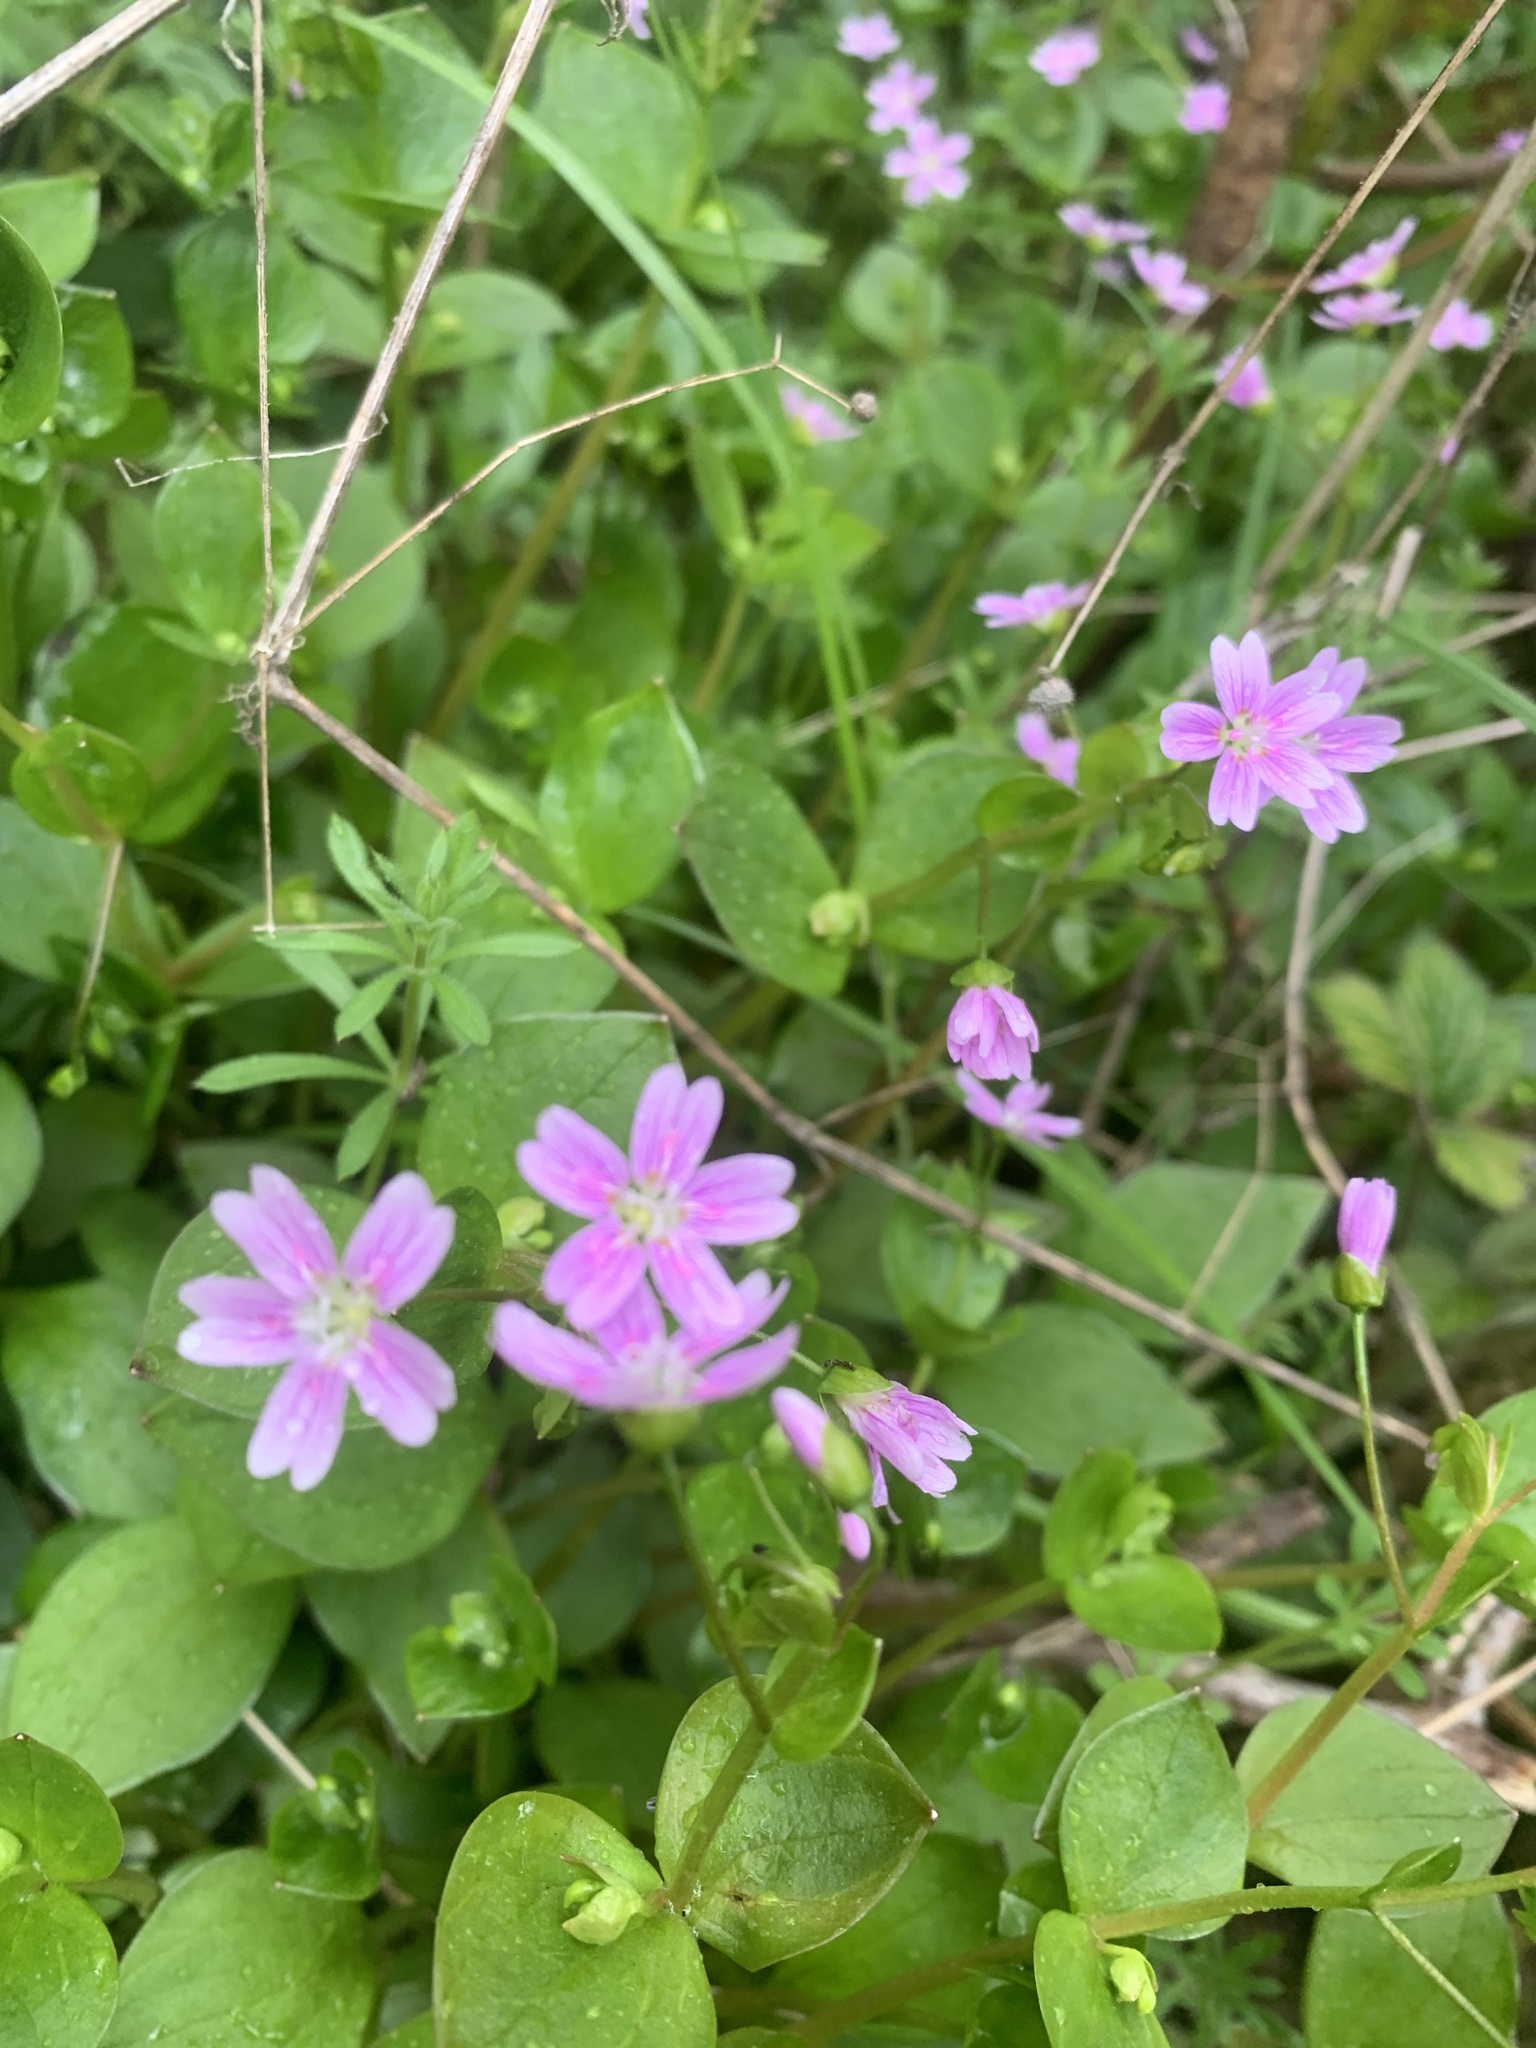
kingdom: Plantae
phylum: Tracheophyta
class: Magnoliopsida
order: Caryophyllales
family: Montiaceae
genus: Claytonia
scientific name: Claytonia sibirica
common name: Pink purslane
